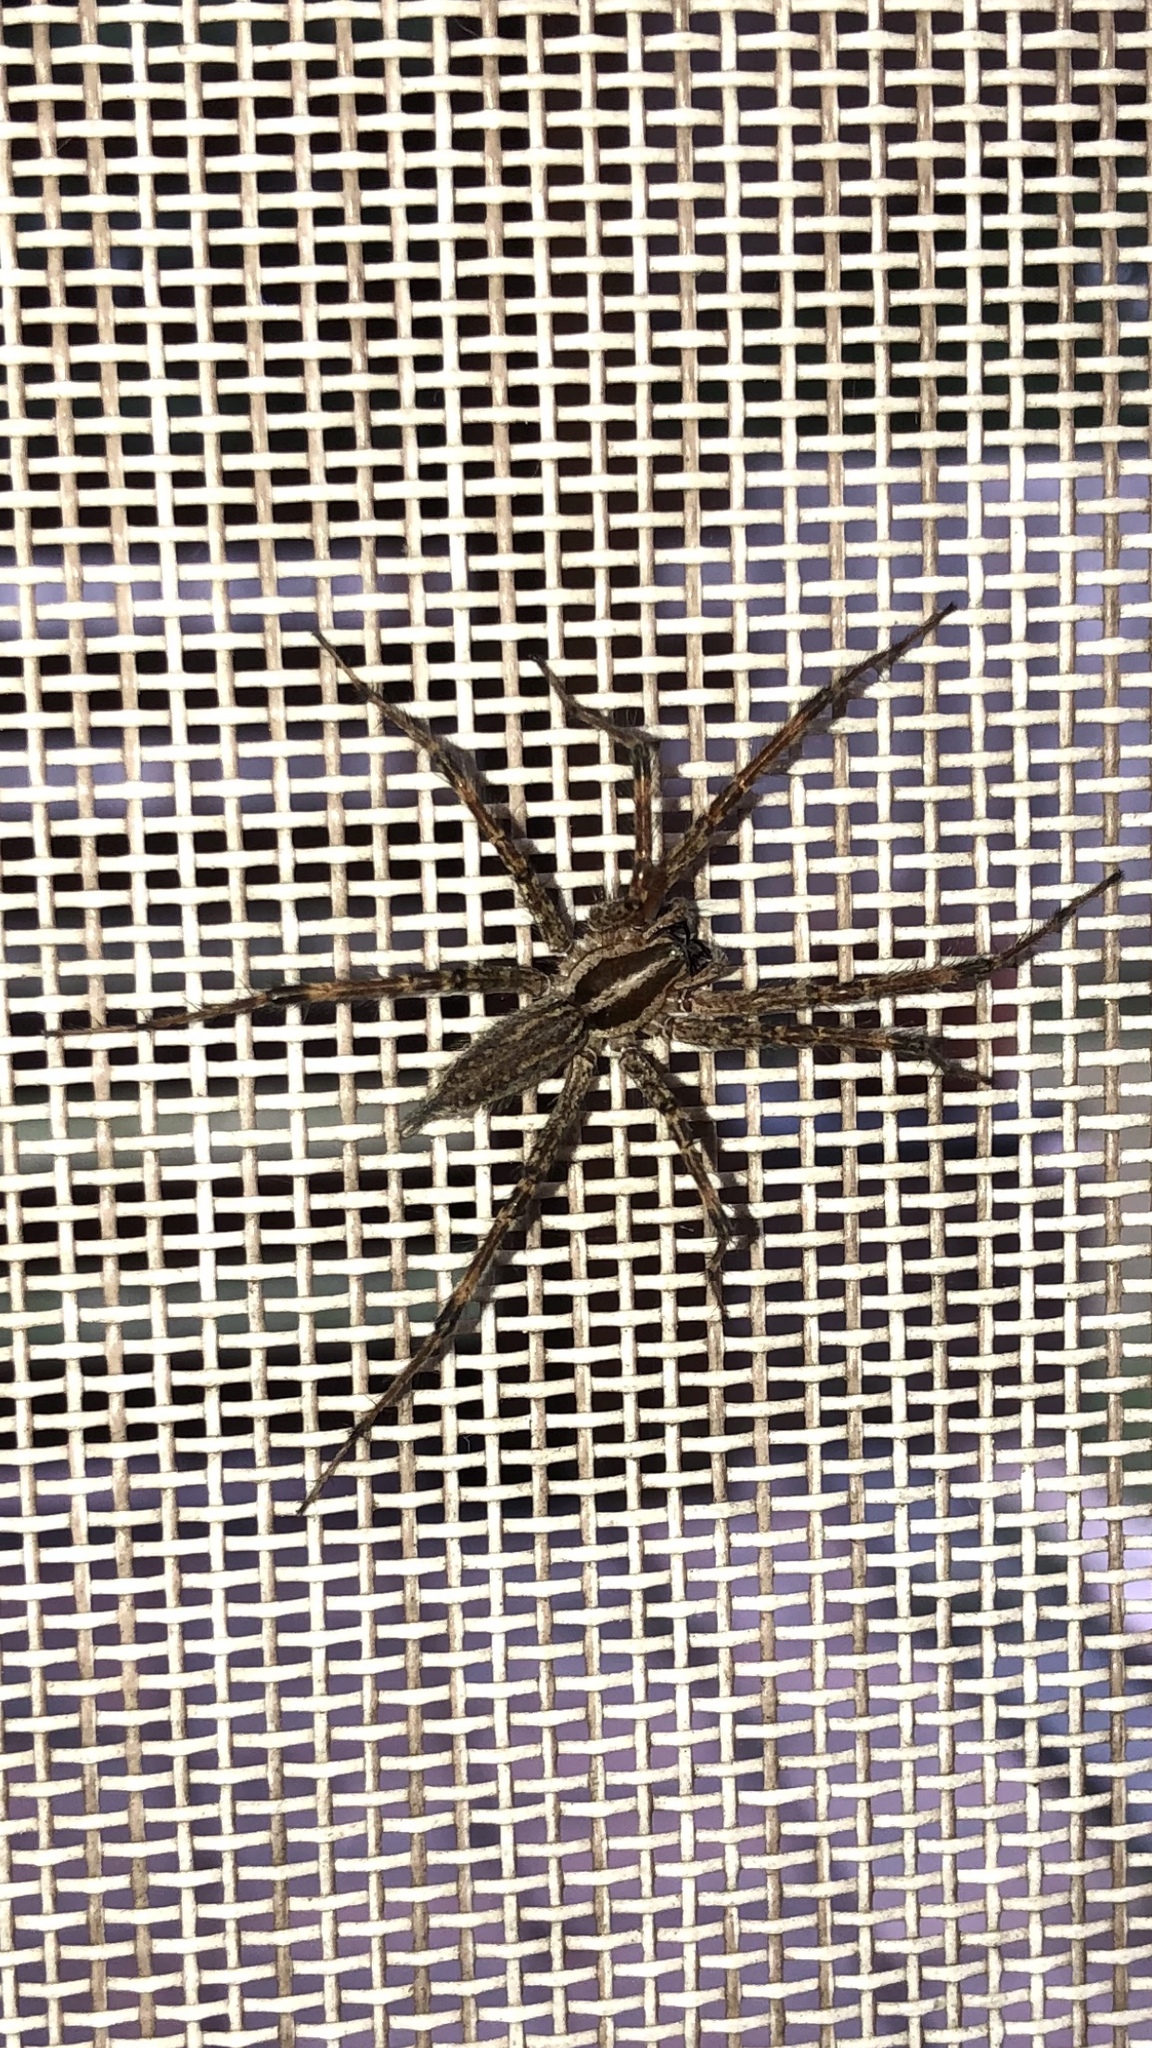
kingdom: Animalia
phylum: Arthropoda
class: Arachnida
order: Araneae
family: Agelenidae
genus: Agelenopsis
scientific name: Agelenopsis
